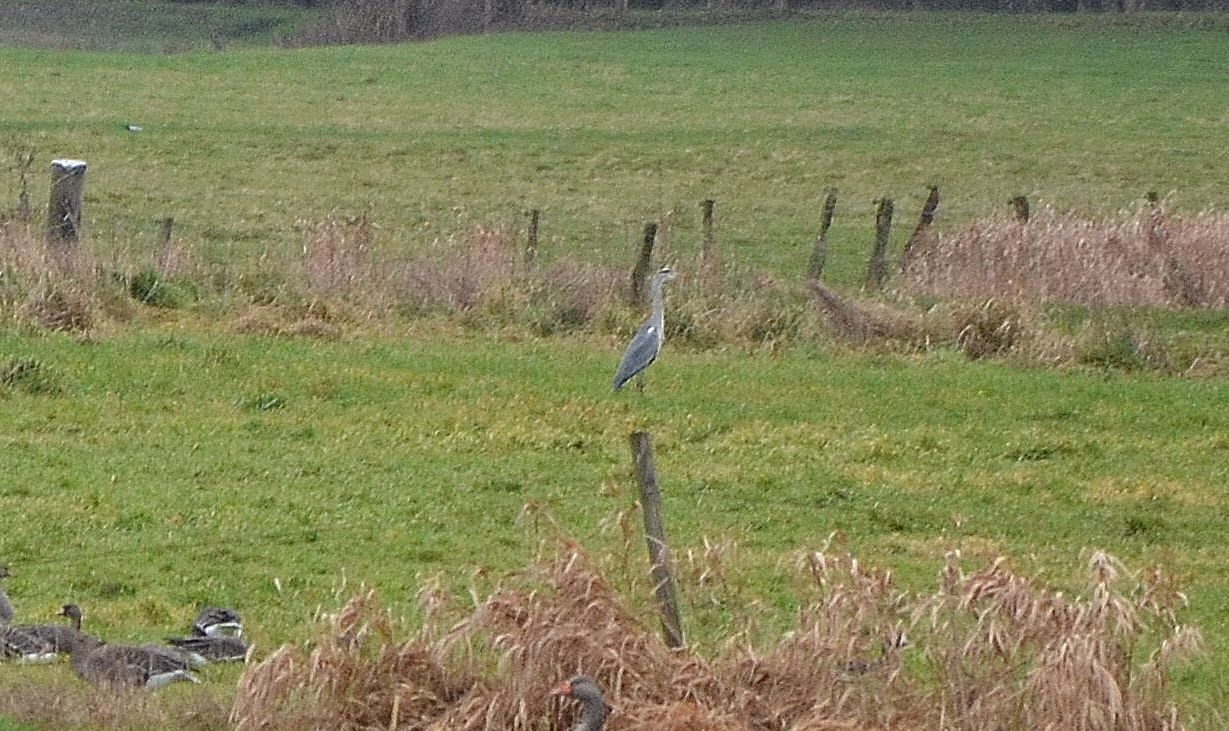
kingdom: Animalia
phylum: Chordata
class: Aves
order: Pelecaniformes
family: Ardeidae
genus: Ardea
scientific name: Ardea cinerea
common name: Grey heron
